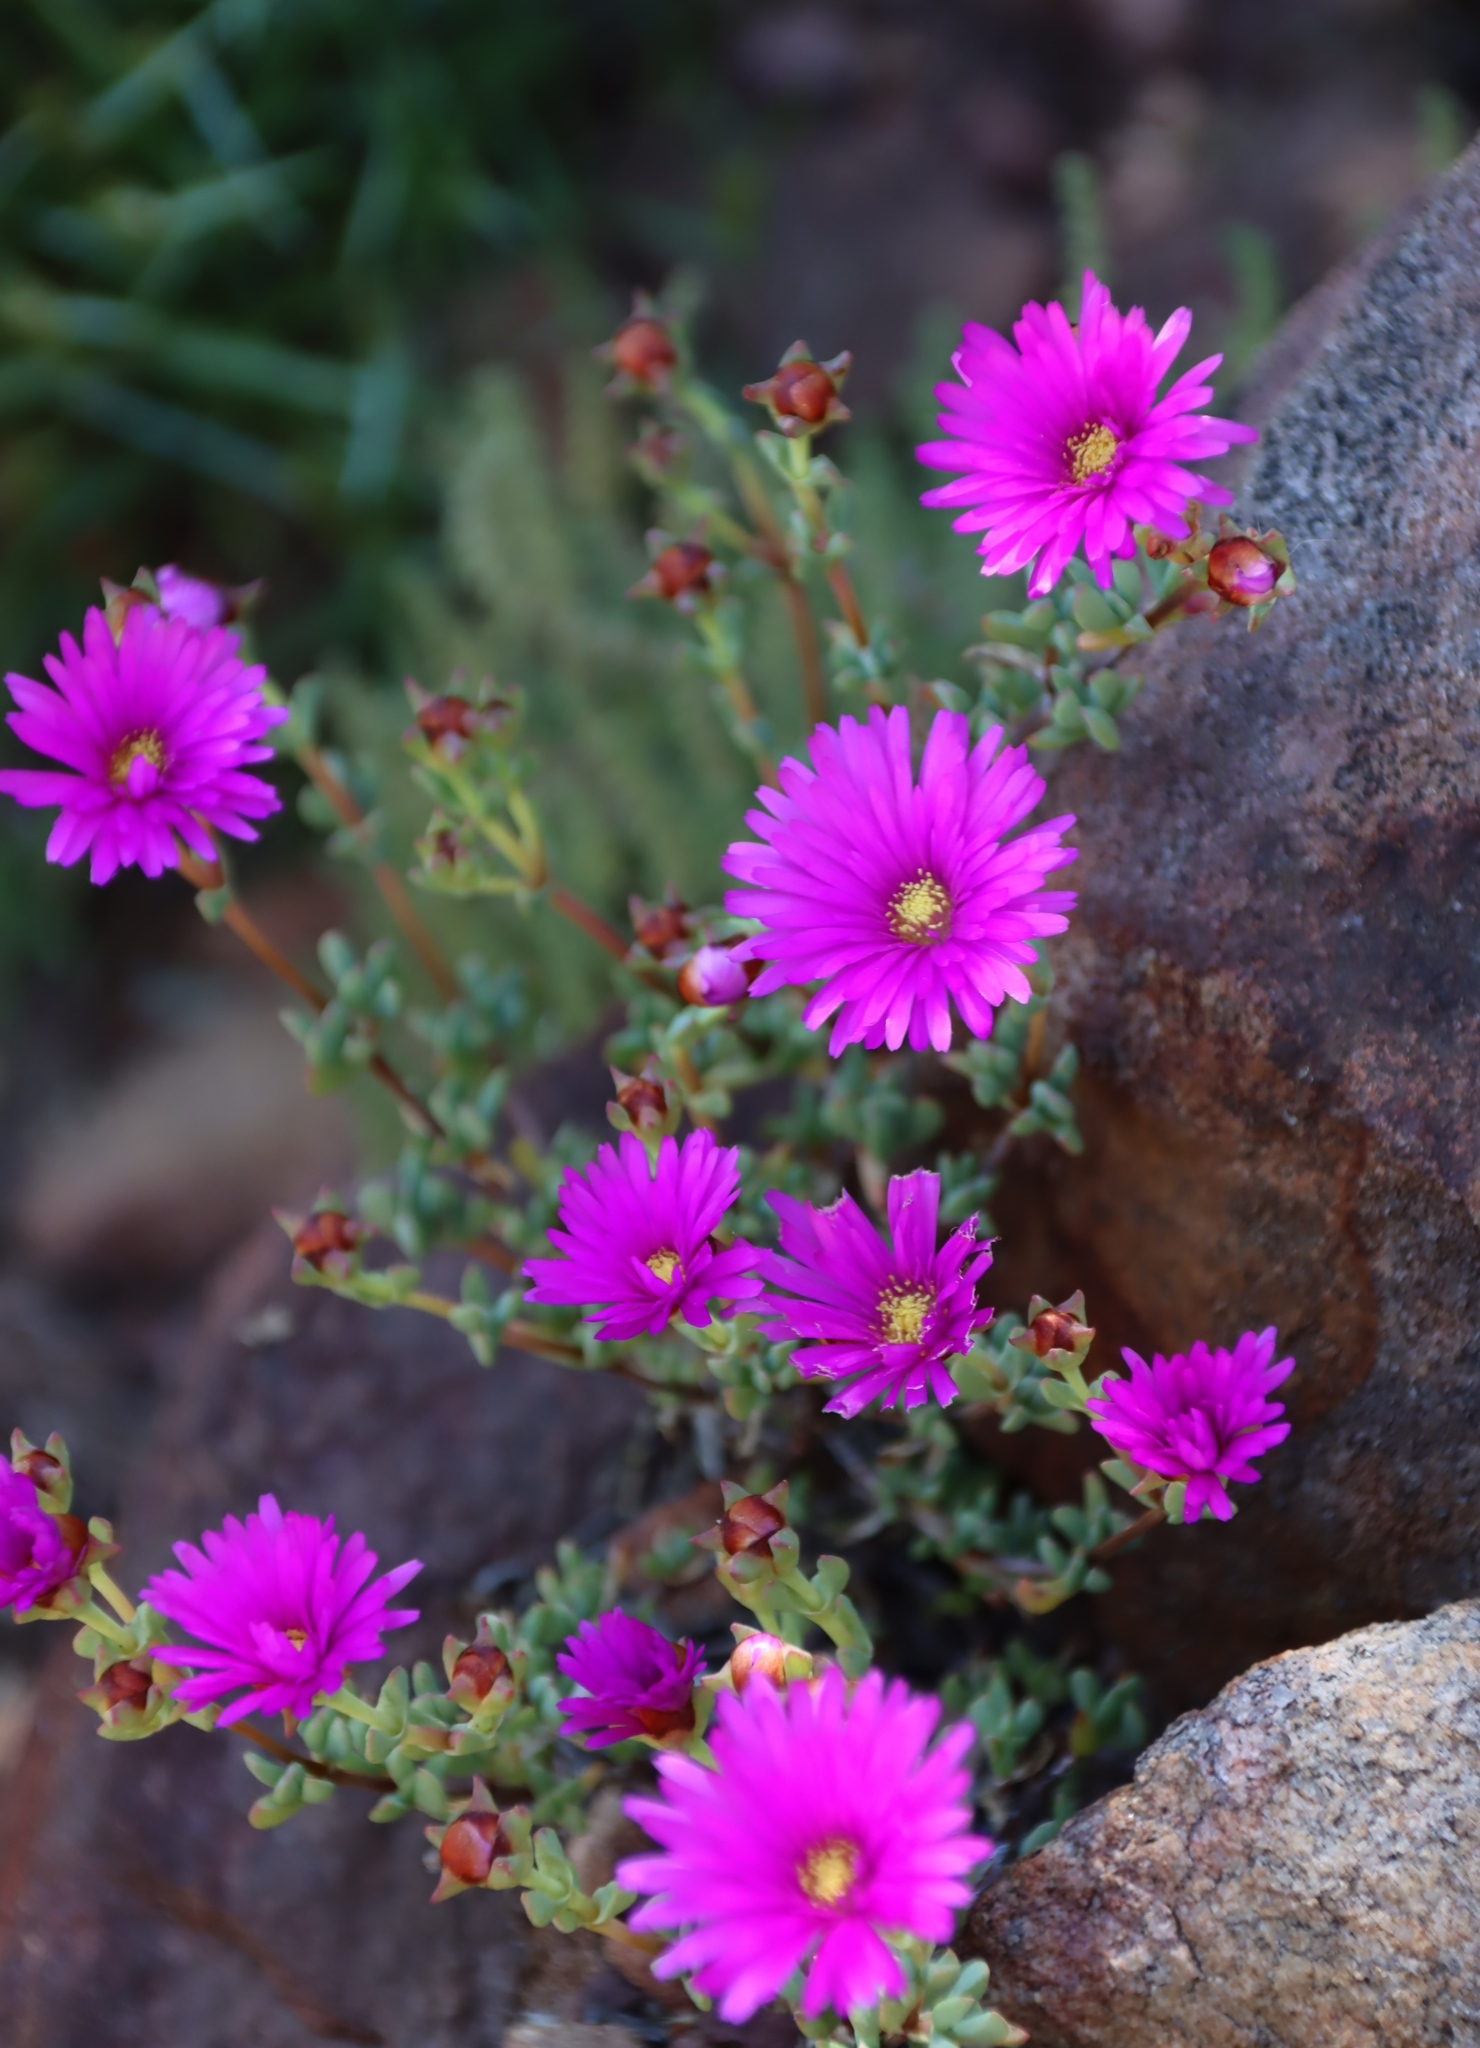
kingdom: Plantae
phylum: Tracheophyta
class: Magnoliopsida
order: Caryophyllales
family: Aizoaceae
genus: Oscularia
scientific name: Oscularia falciformis
